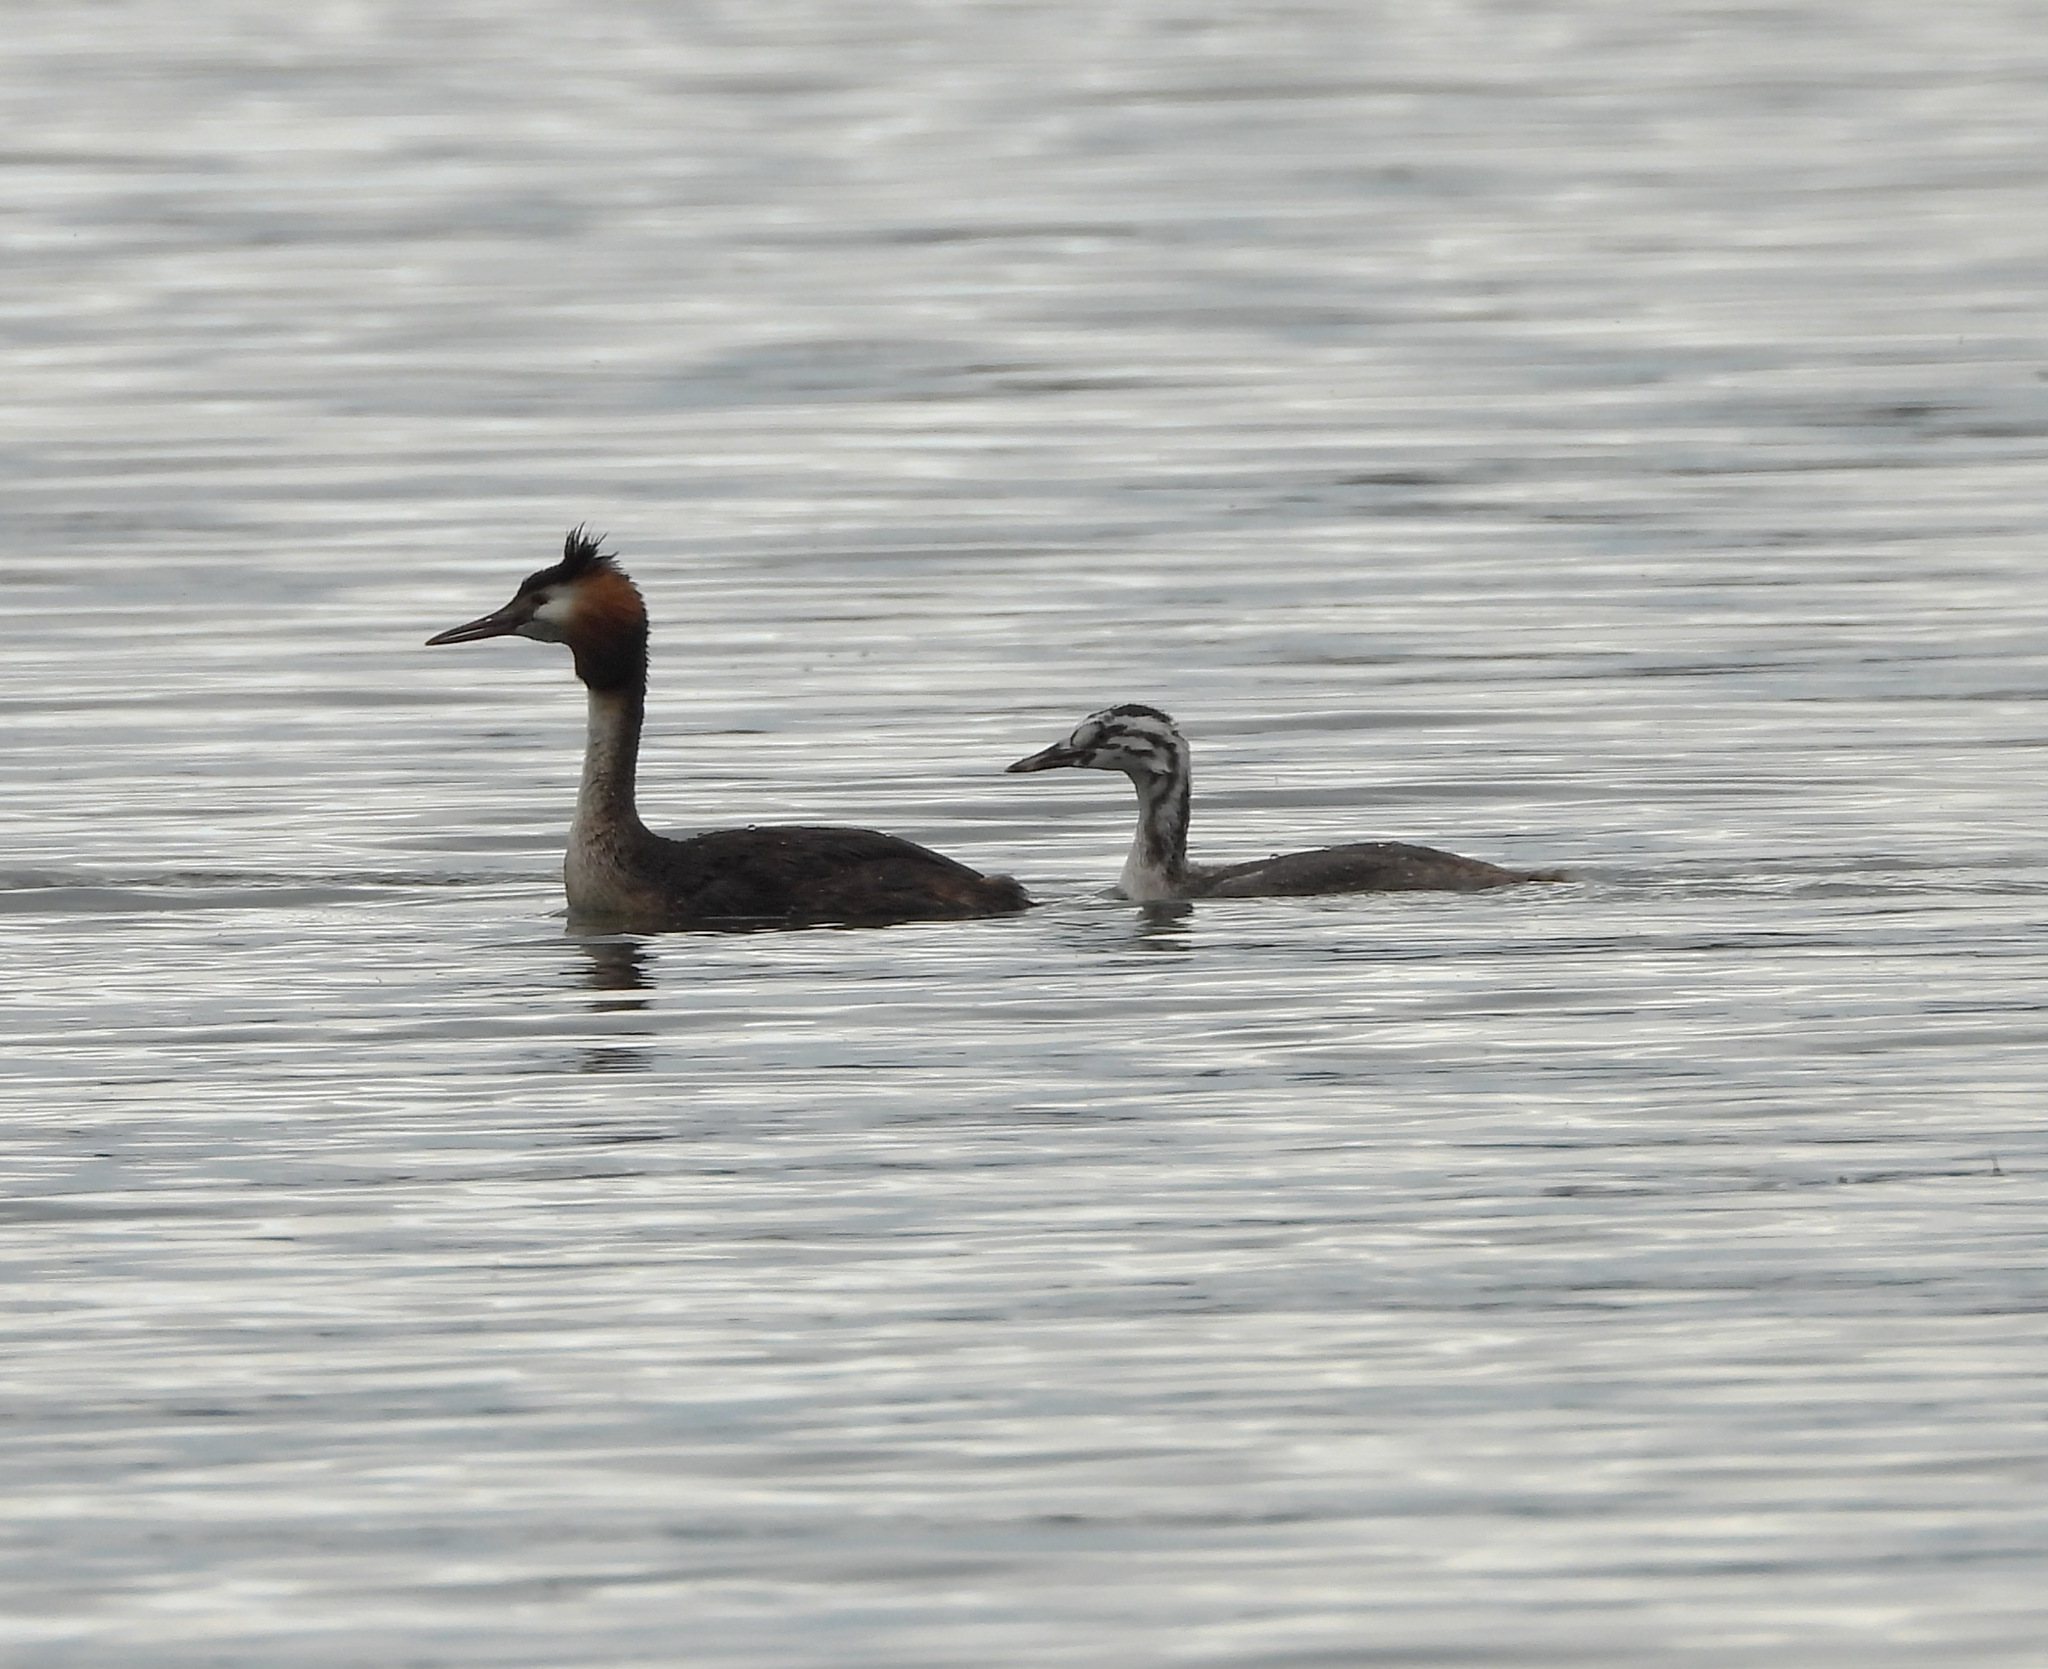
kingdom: Animalia
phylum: Chordata
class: Aves
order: Podicipediformes
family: Podicipedidae
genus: Podiceps
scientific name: Podiceps cristatus
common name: Great crested grebe
